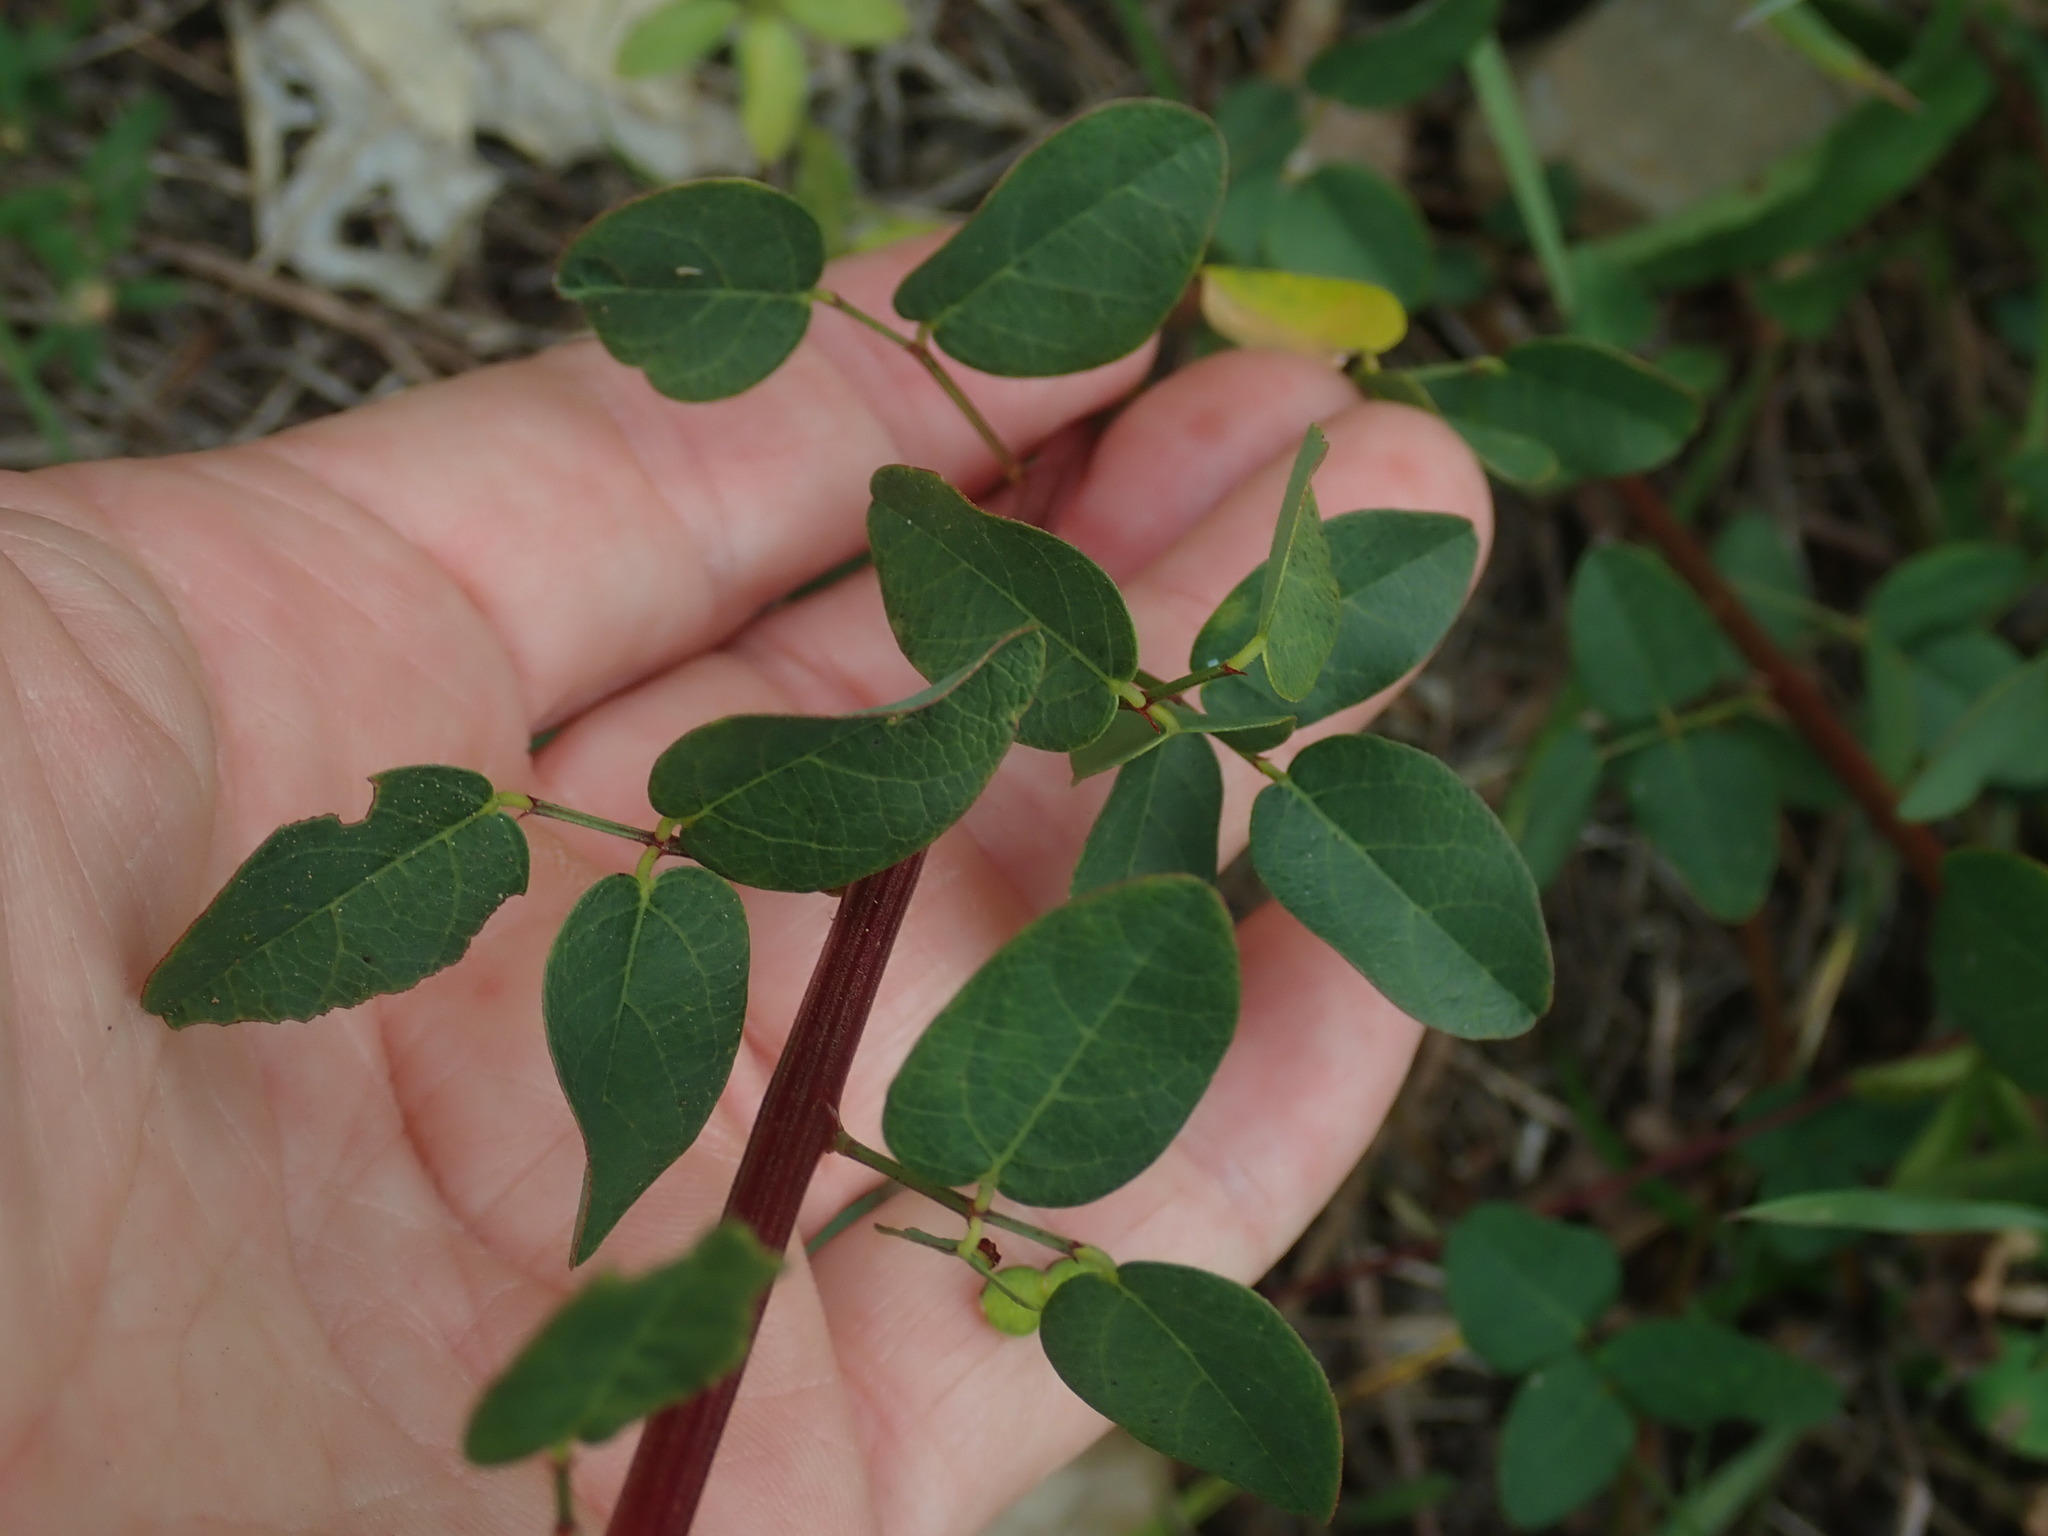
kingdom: Plantae
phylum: Tracheophyta
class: Magnoliopsida
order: Fabales
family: Fabaceae
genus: Desmodium
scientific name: Desmodium marilandicum
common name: Maryland tick-trefoil
